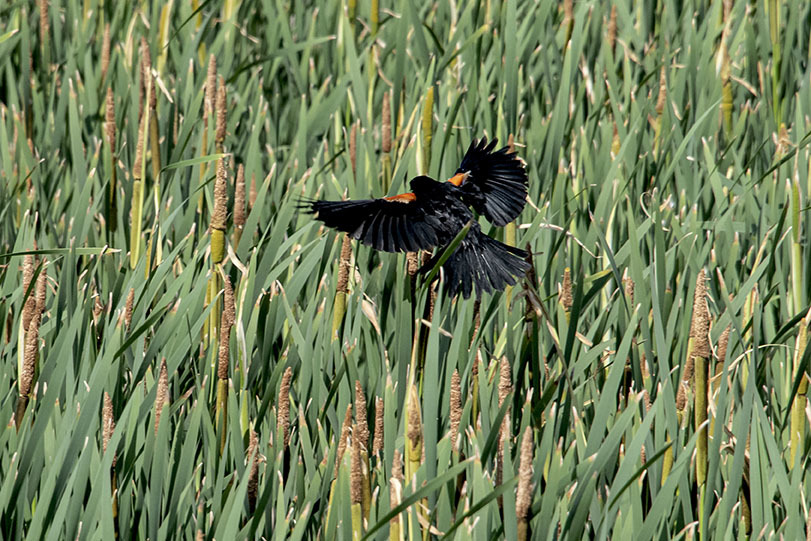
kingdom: Animalia
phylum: Chordata
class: Aves
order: Passeriformes
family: Icteridae
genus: Agelaius
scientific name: Agelaius phoeniceus
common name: Red-winged blackbird
